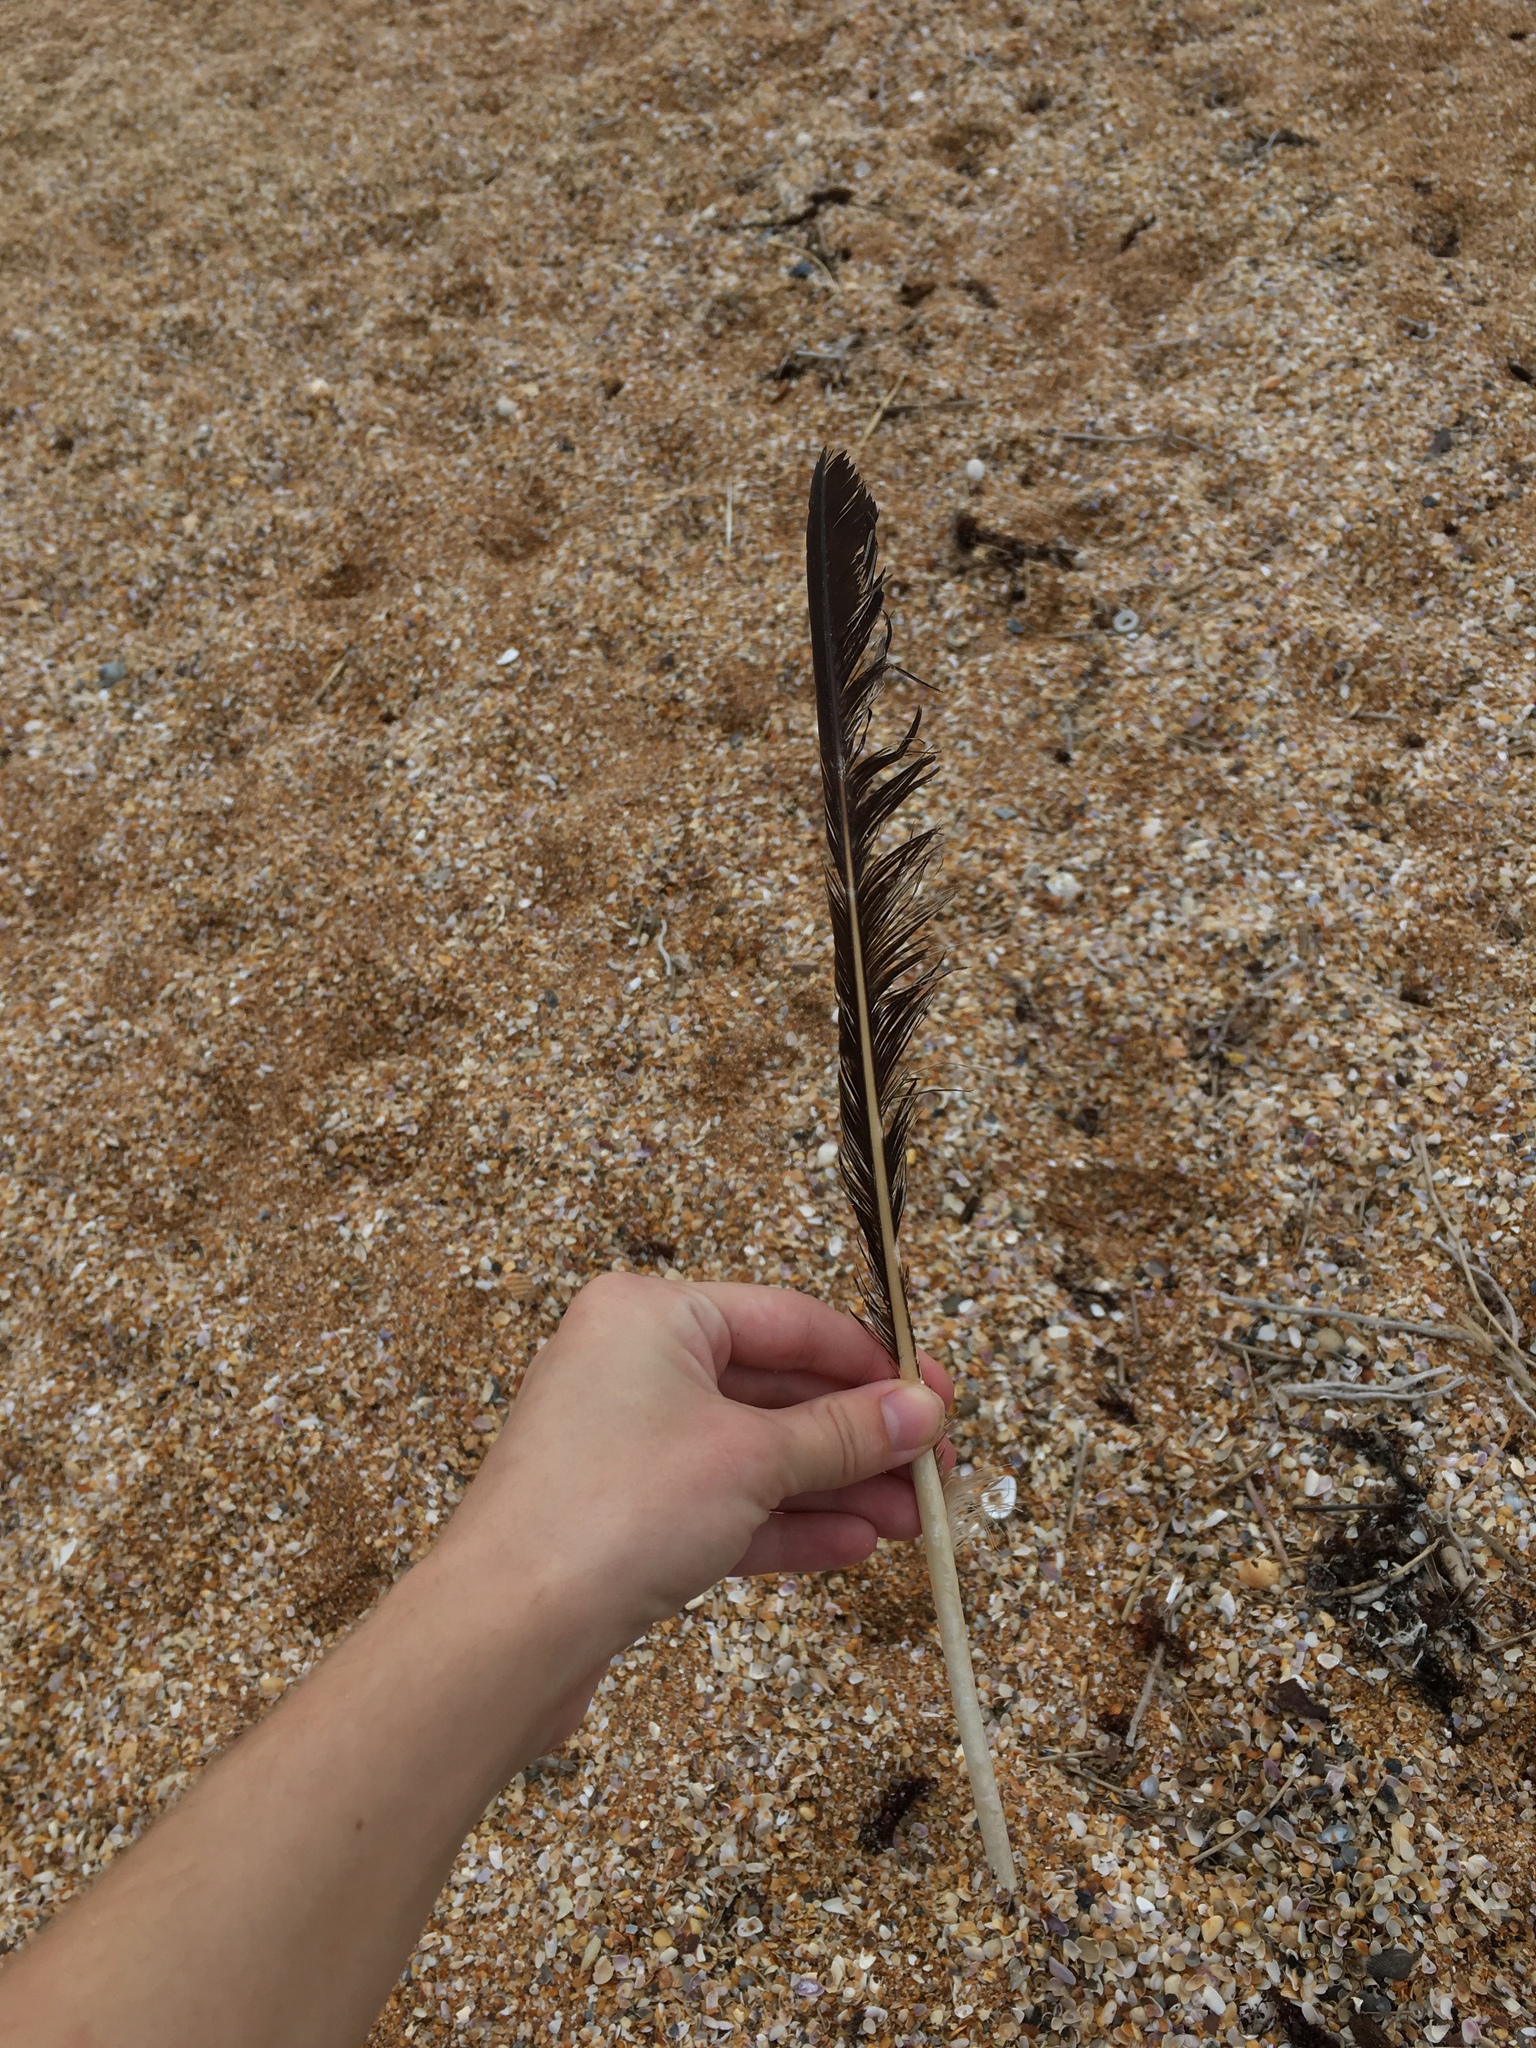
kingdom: Animalia
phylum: Chordata
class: Aves
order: Pelecaniformes
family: Pelecanidae
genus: Pelecanus
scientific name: Pelecanus occidentalis
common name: Brown pelican
